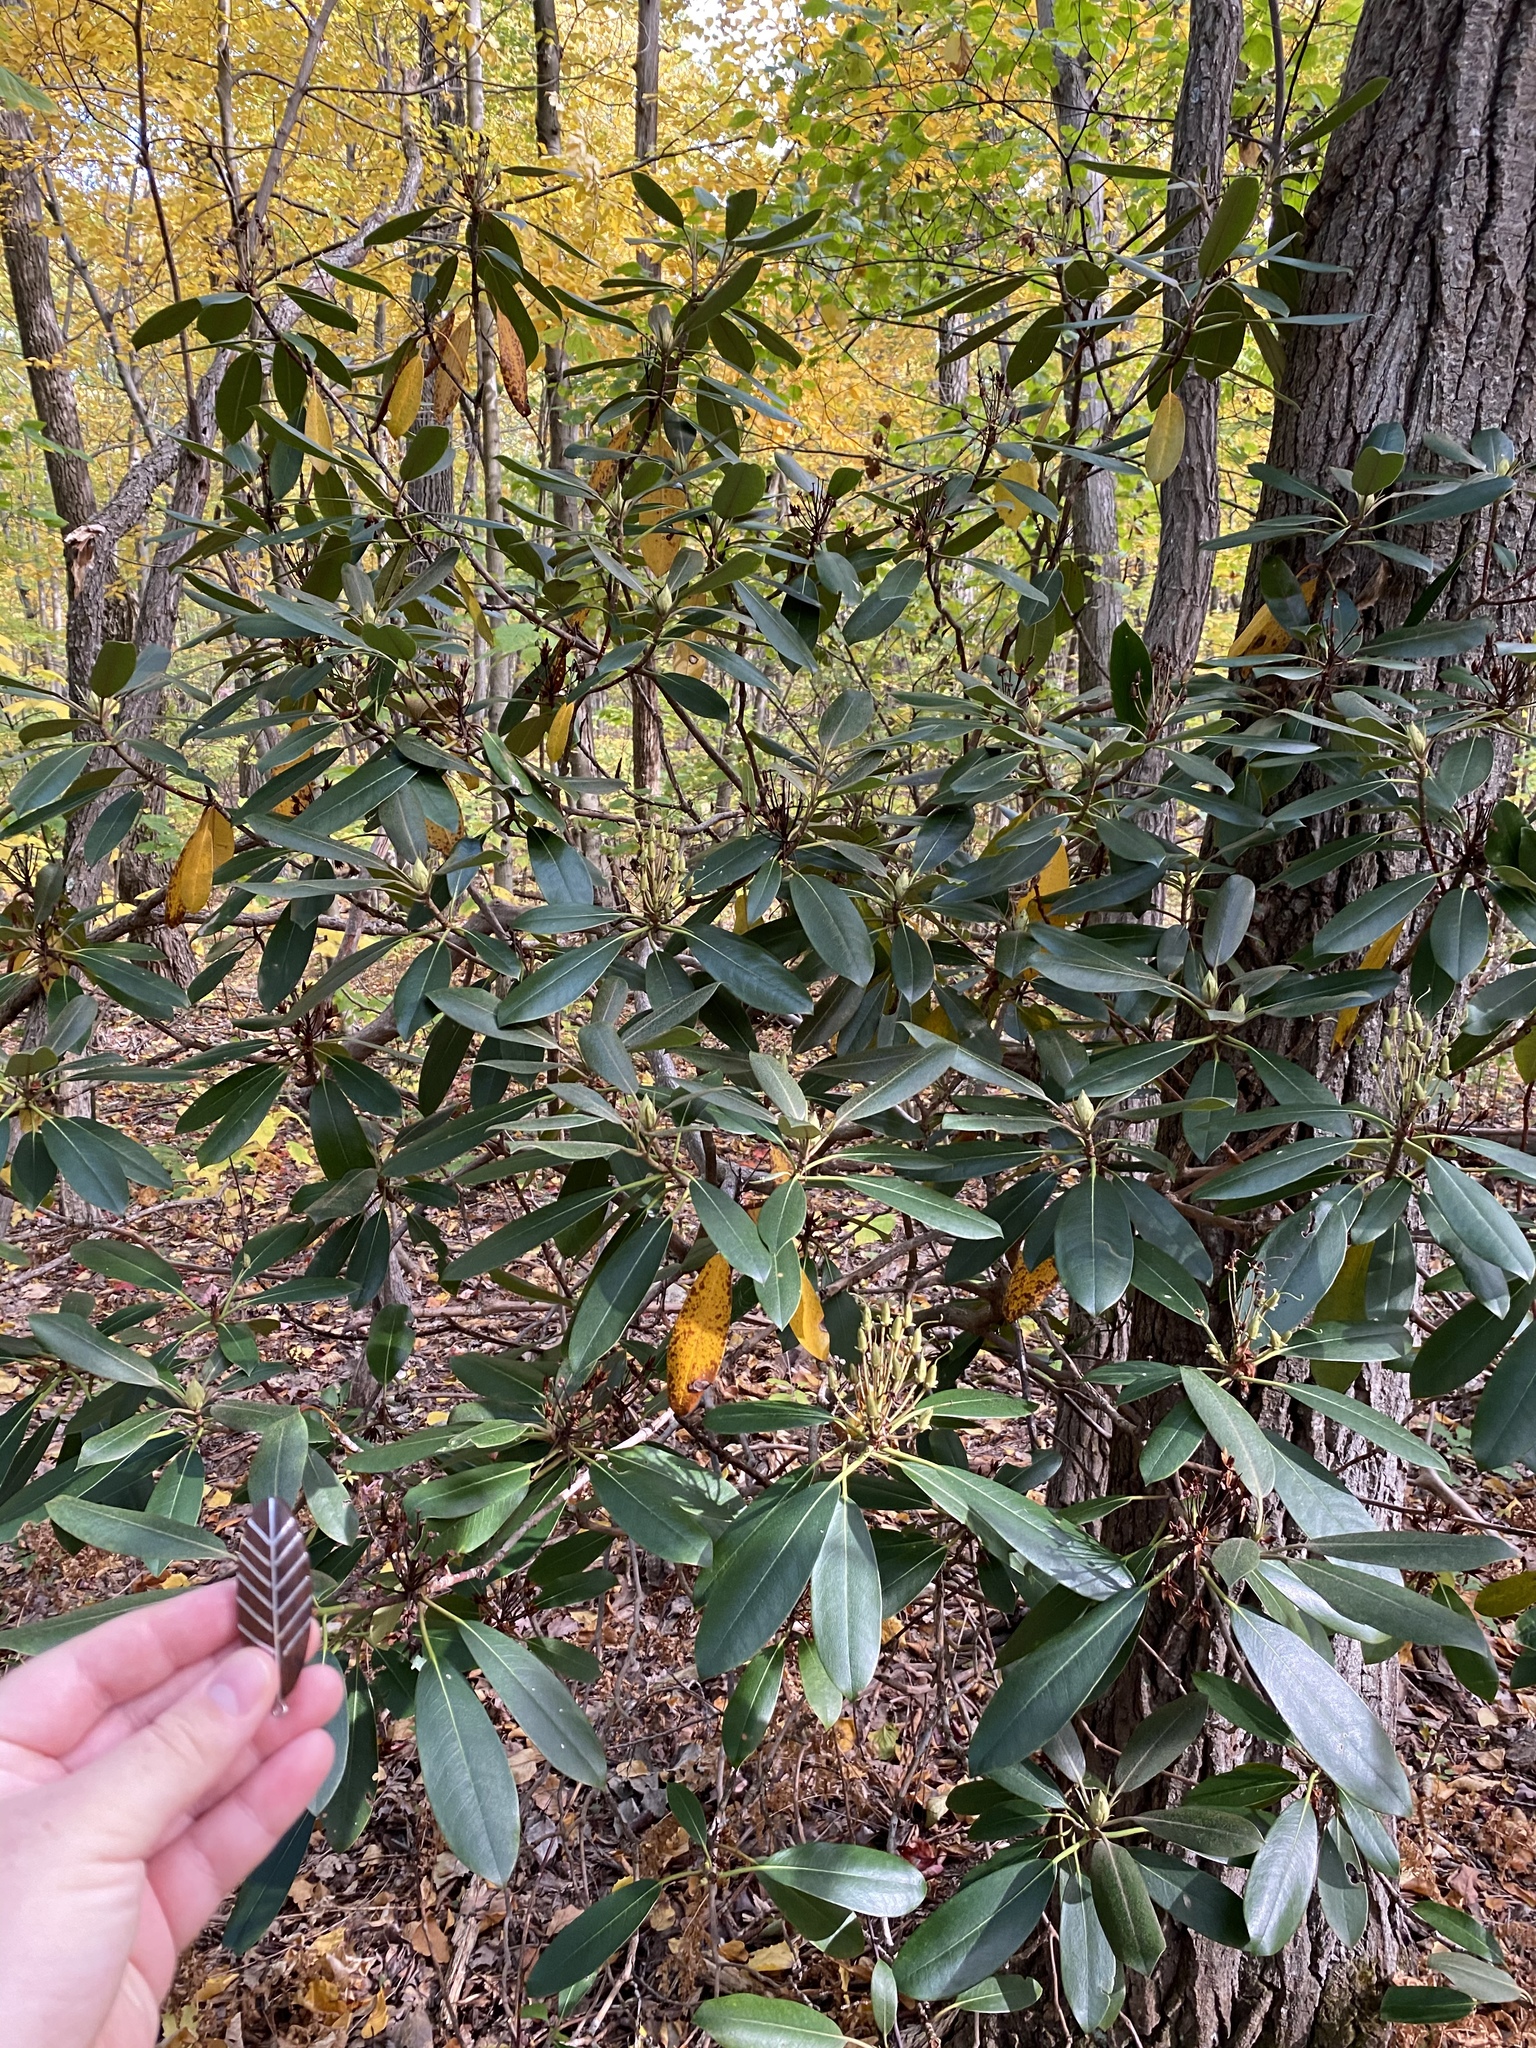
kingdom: Plantae
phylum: Tracheophyta
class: Magnoliopsida
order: Ericales
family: Ericaceae
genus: Rhododendron
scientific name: Rhododendron maximum
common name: Great rhododendron
